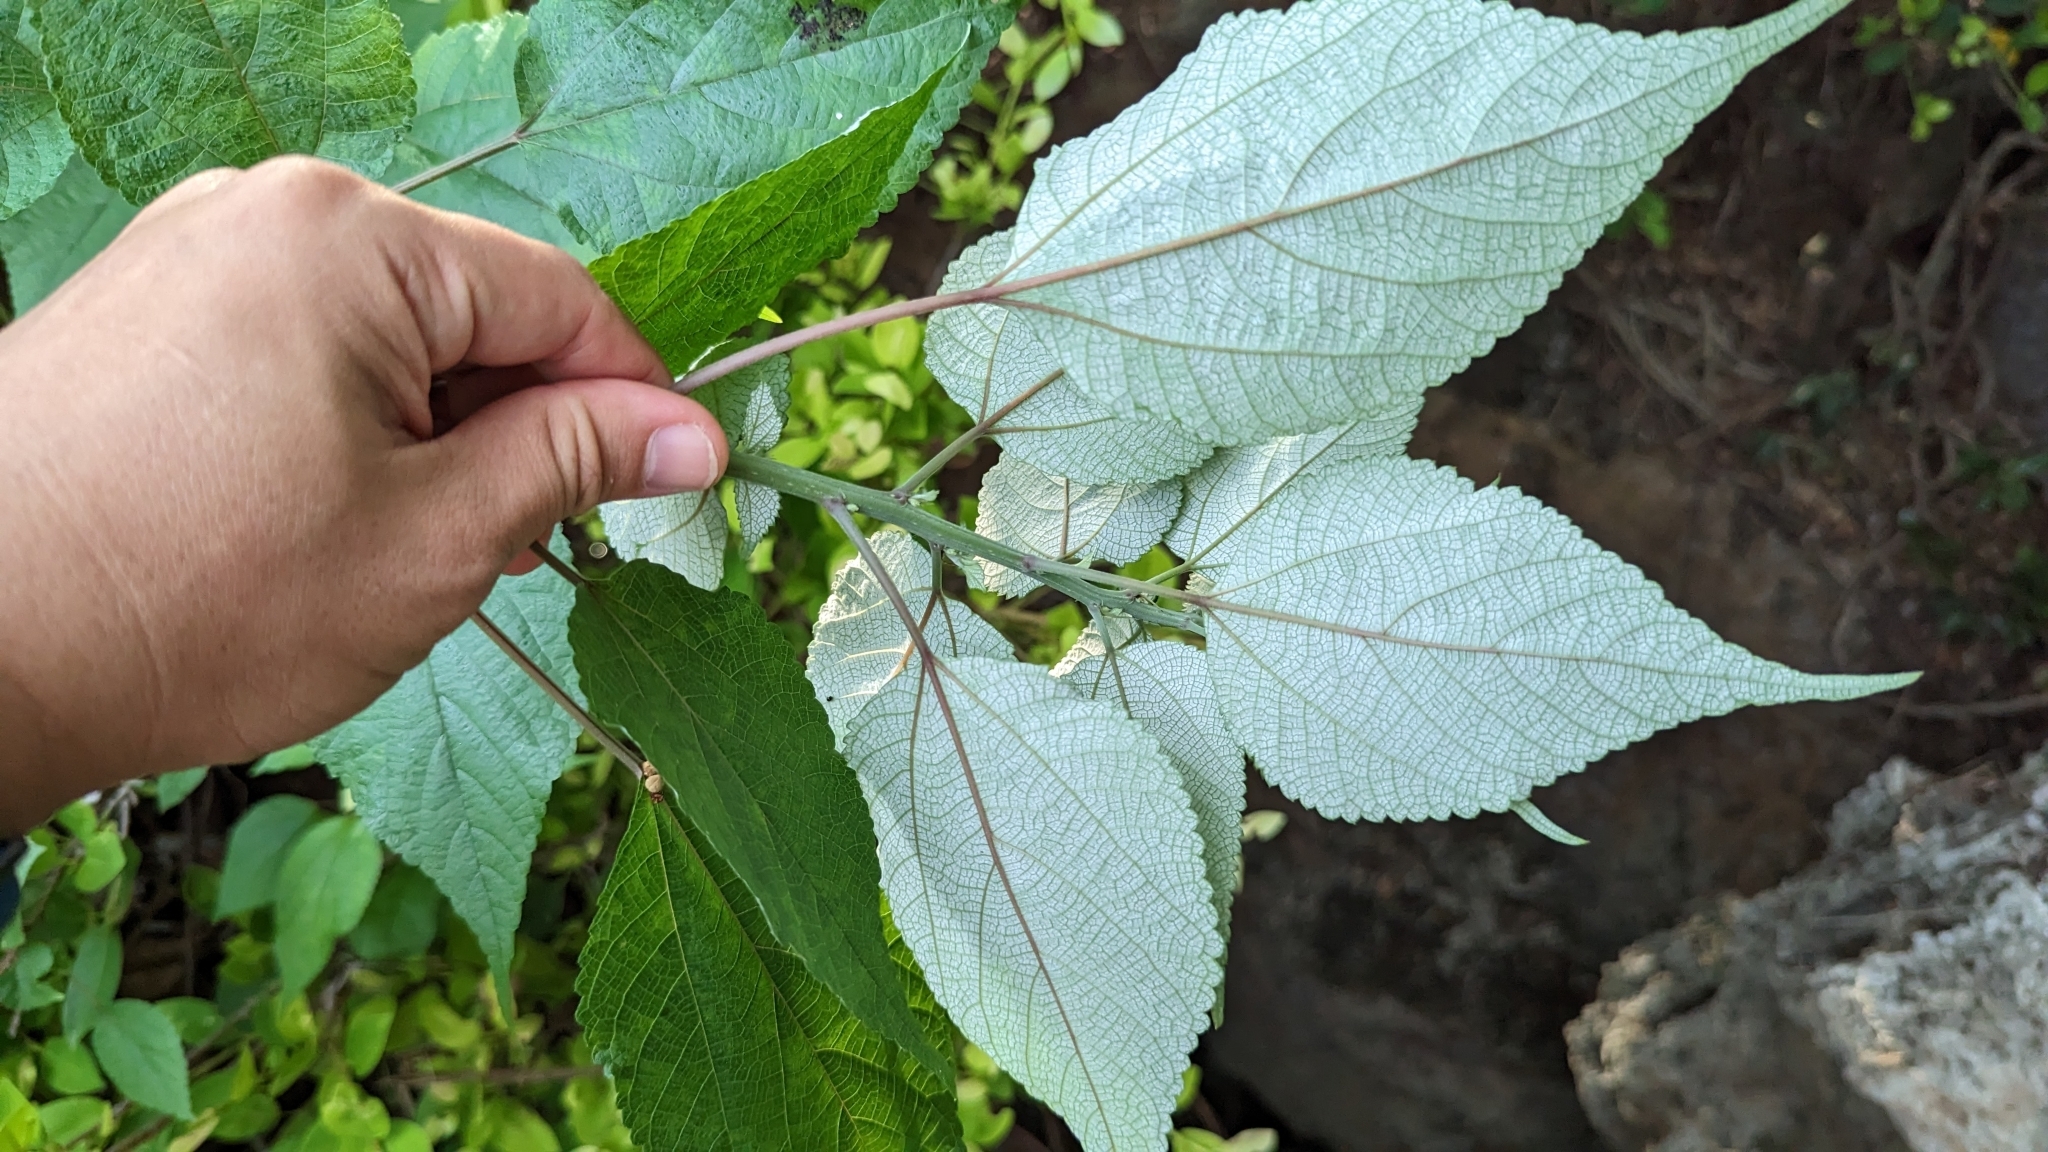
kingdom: Plantae
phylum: Tracheophyta
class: Magnoliopsida
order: Rosales
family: Urticaceae
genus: Boehmeria
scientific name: Boehmeria nivea
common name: Ramie chinese grass
